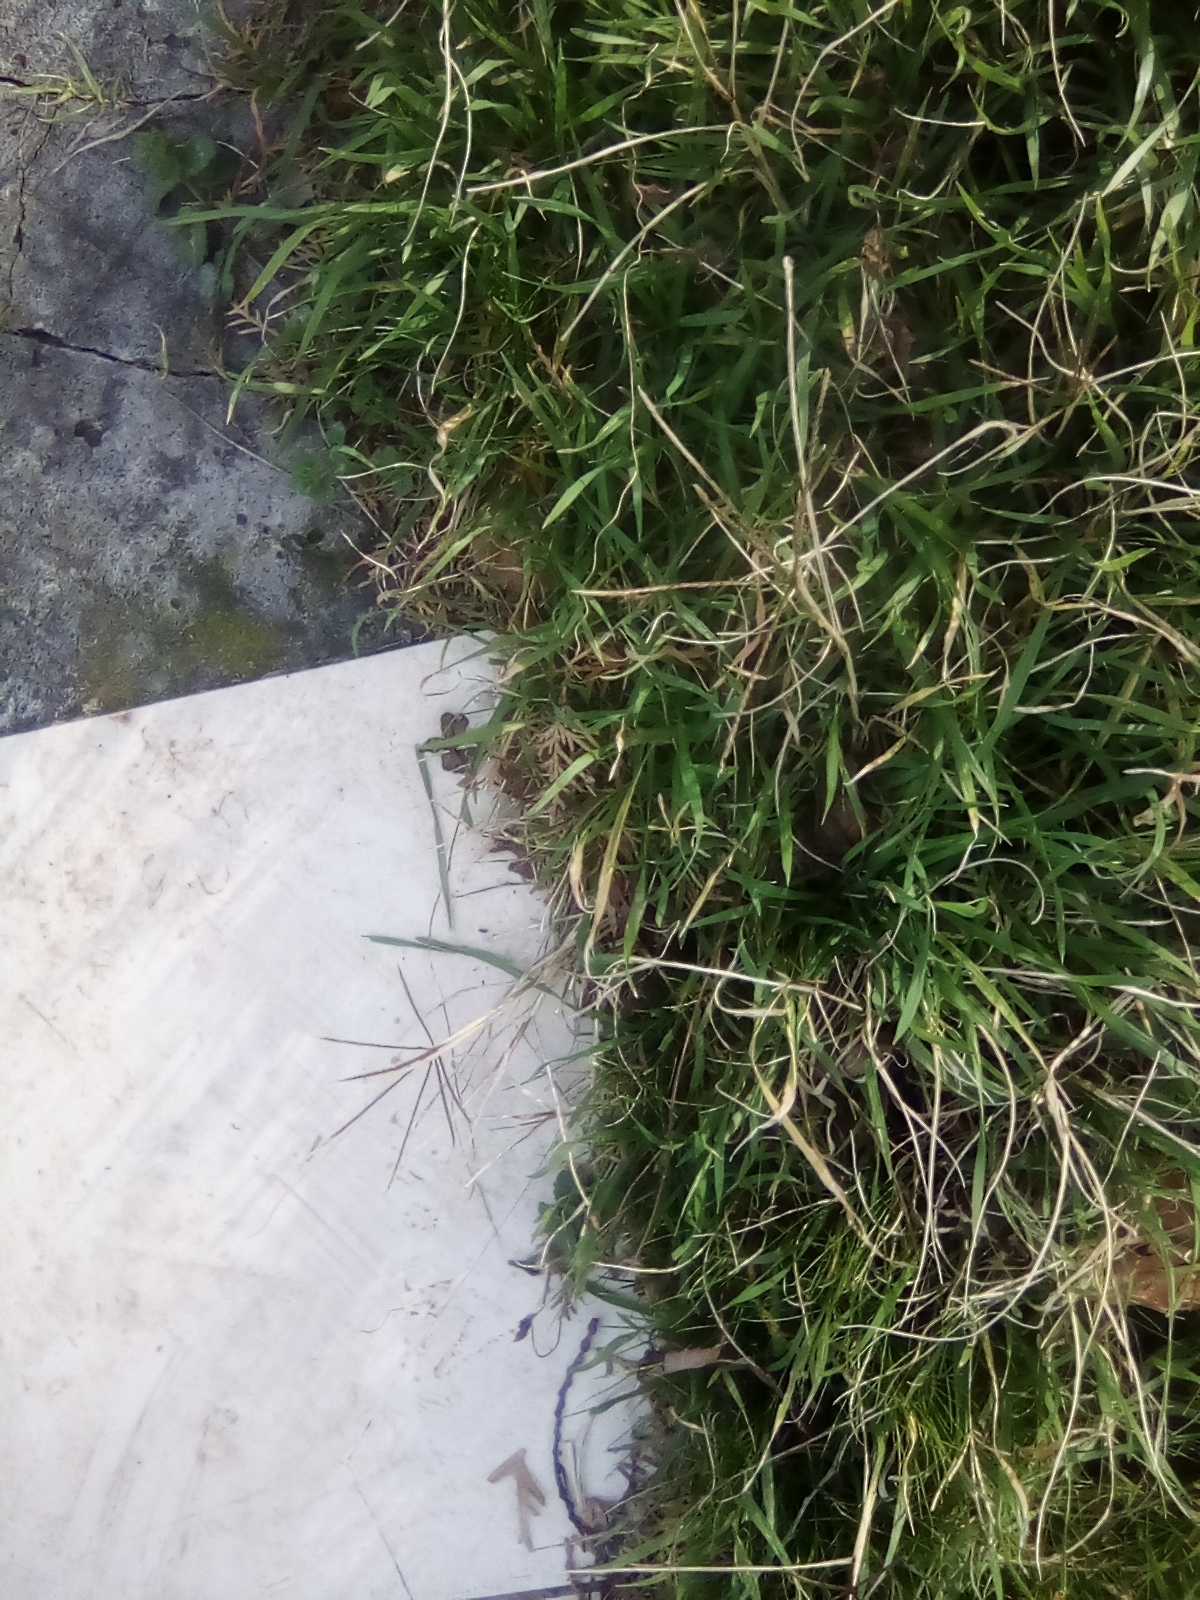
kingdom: Plantae
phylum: Tracheophyta
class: Liliopsida
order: Poales
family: Poaceae
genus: Cynodon
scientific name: Cynodon dactylon
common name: Bermuda grass
